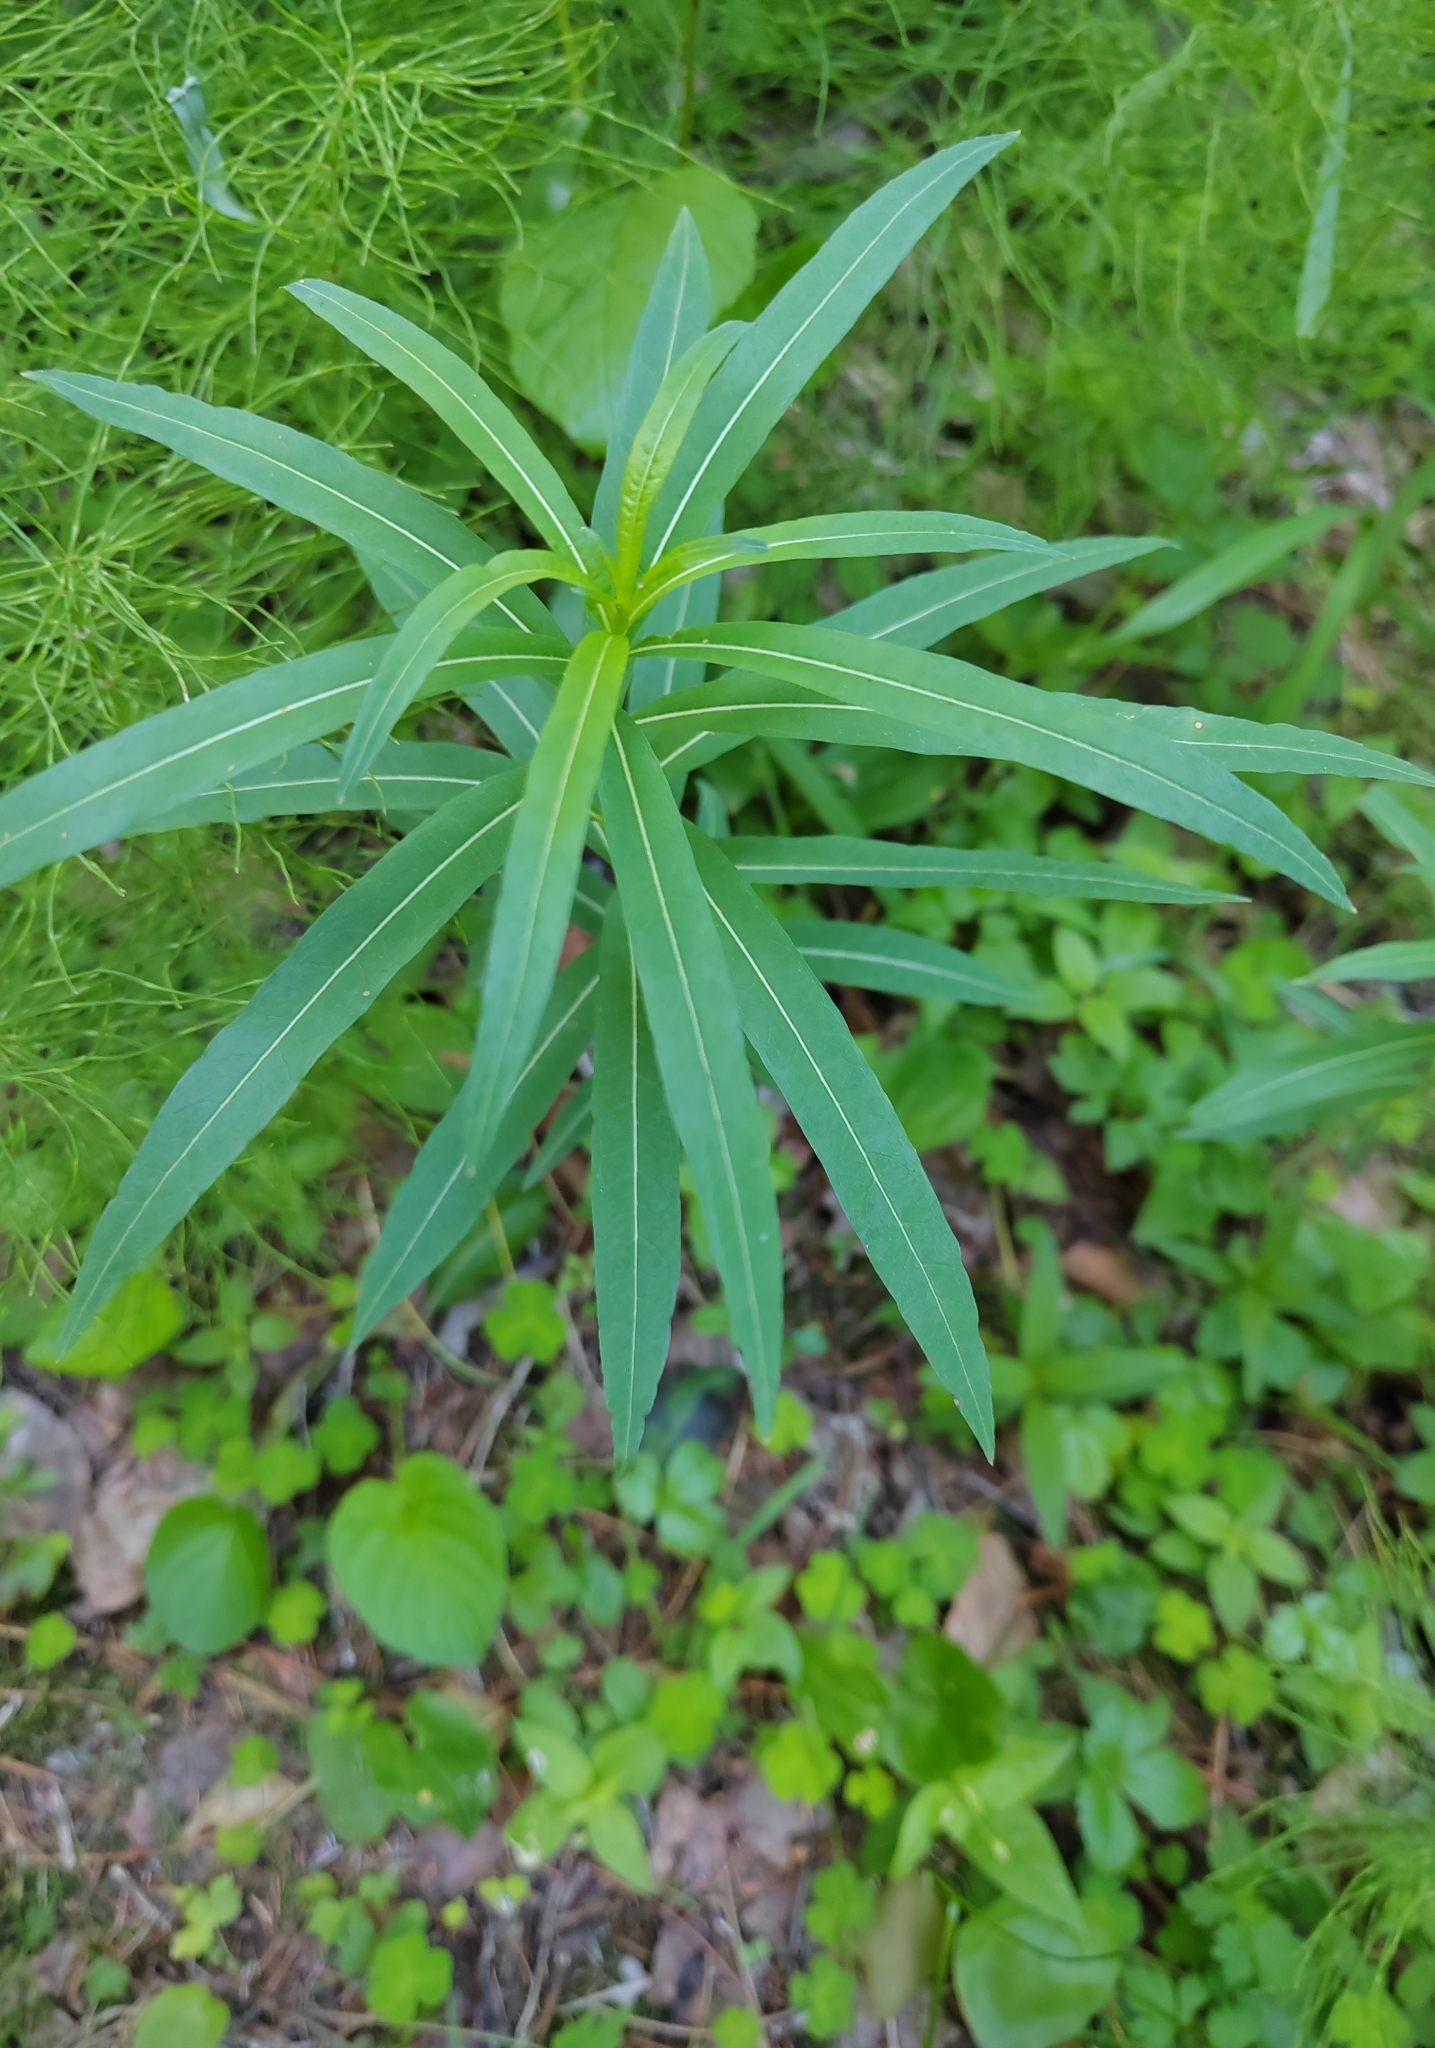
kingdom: Plantae
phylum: Tracheophyta
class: Magnoliopsida
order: Myrtales
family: Onagraceae
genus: Chamaenerion
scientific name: Chamaenerion angustifolium
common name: Fireweed
